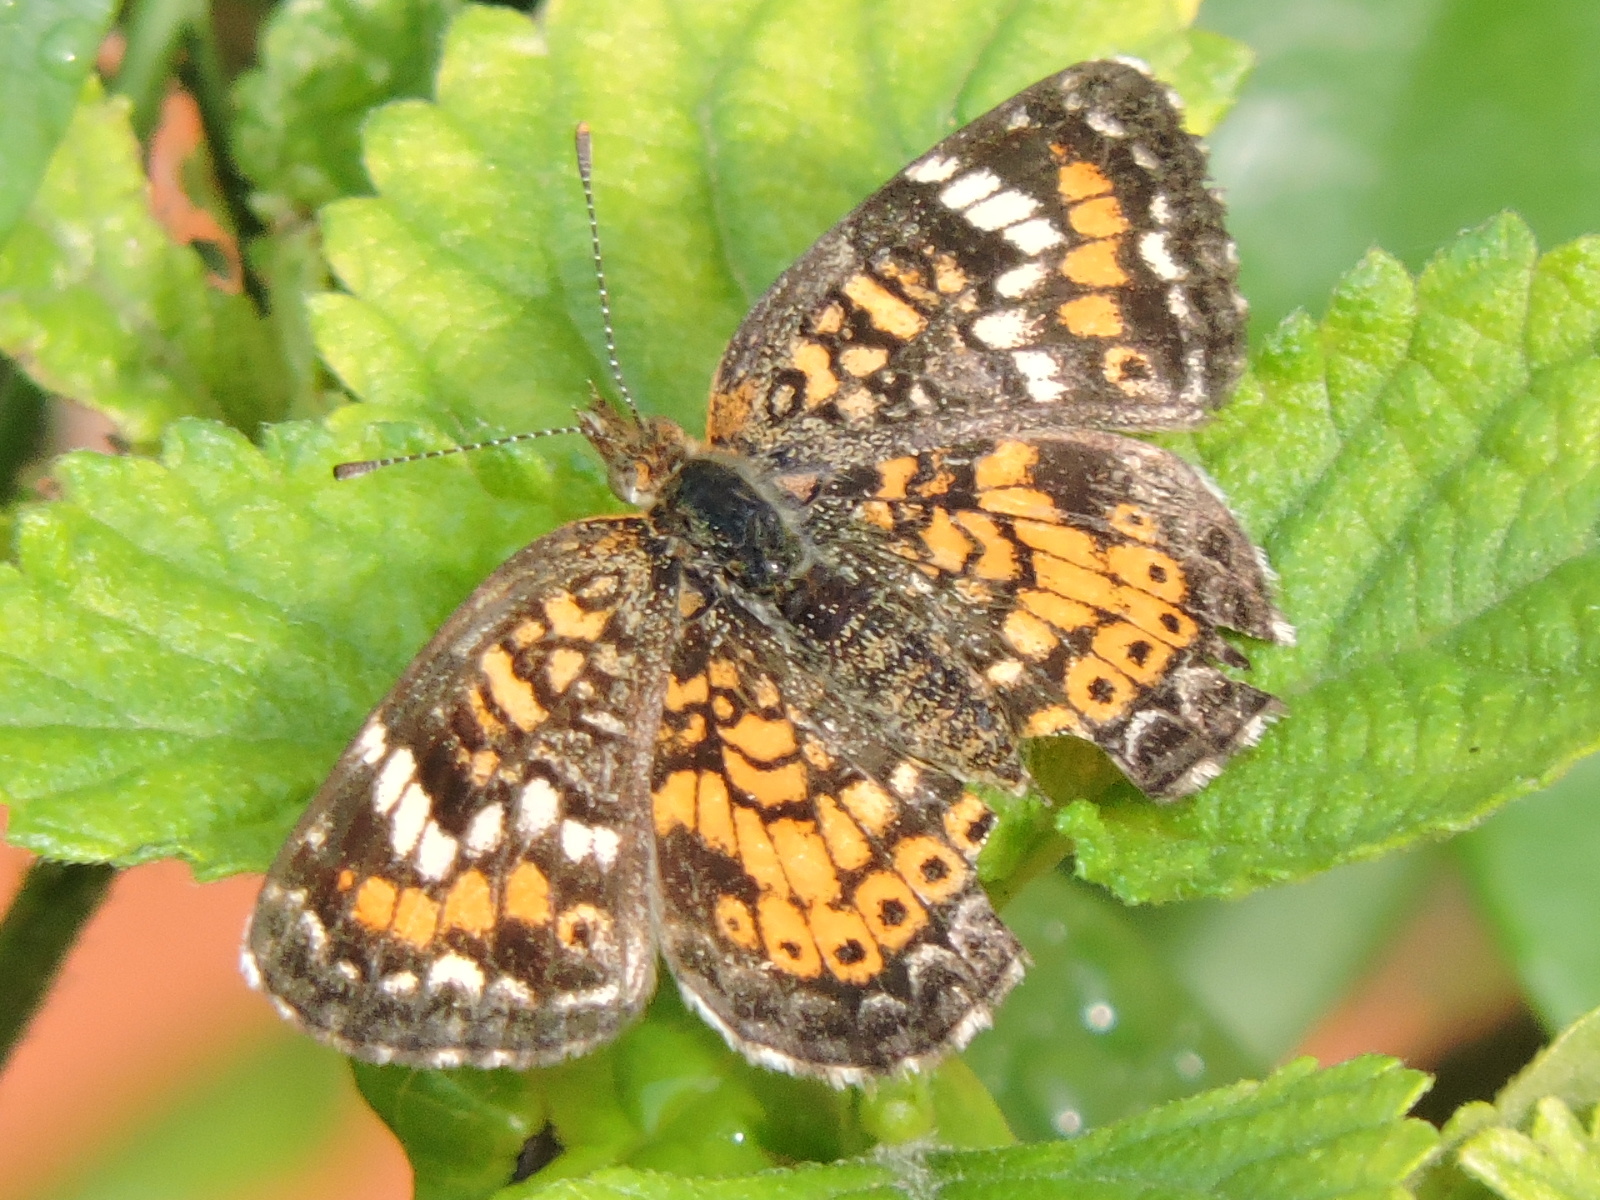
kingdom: Animalia
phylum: Arthropoda
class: Insecta
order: Lepidoptera
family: Nymphalidae
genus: Phyciodes
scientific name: Phyciodes phaon
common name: Phaon crescent
